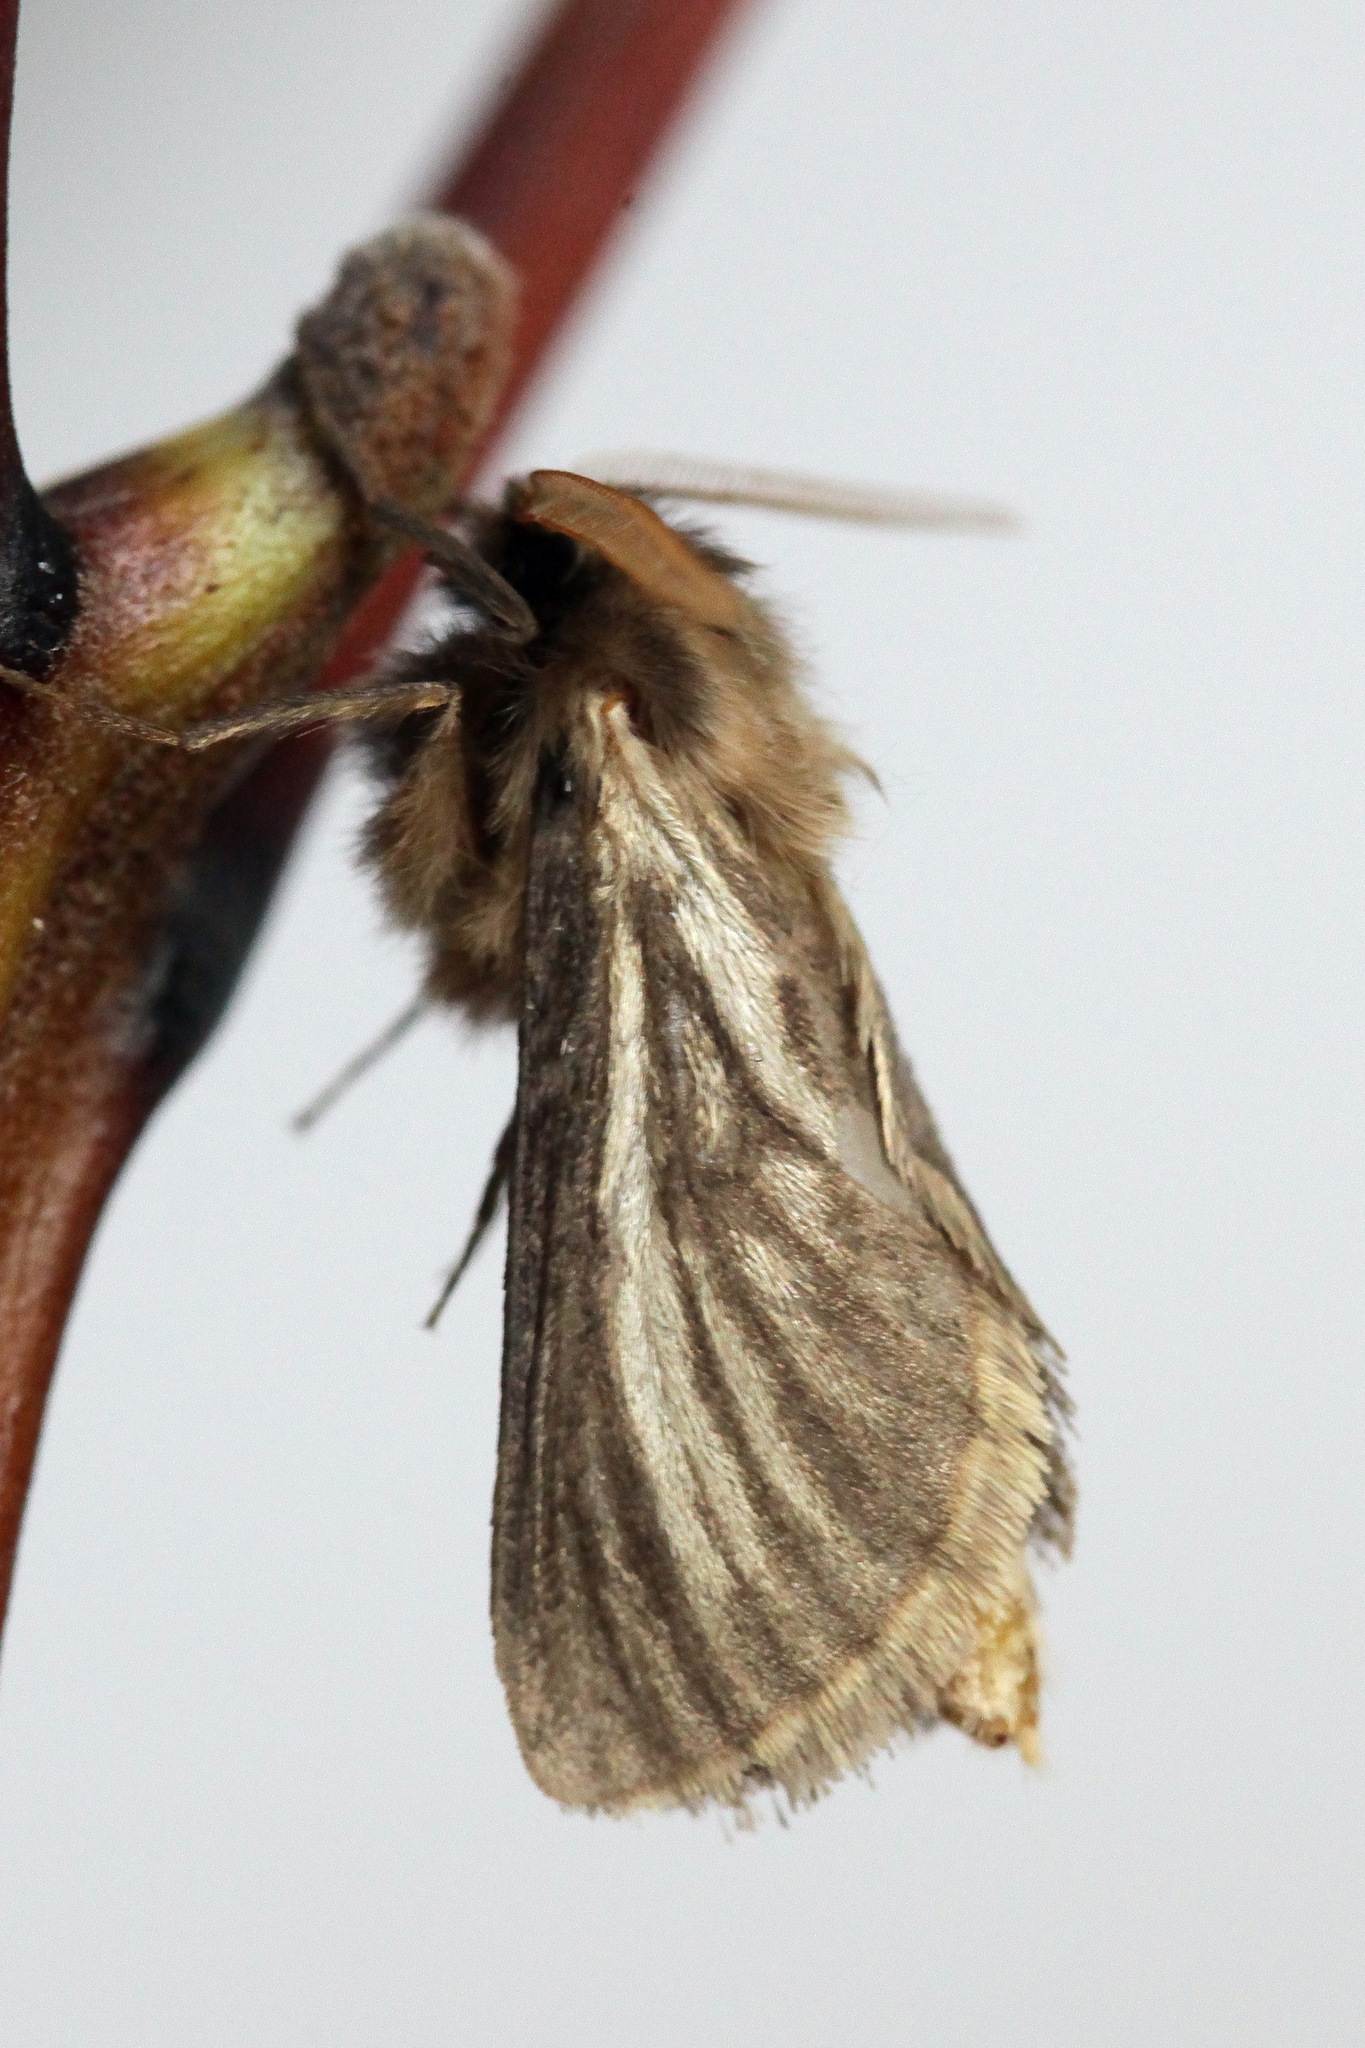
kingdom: Animalia
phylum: Arthropoda
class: Insecta
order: Lepidoptera
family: Hepialidae
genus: Gorgopis
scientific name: Gorgopis libania
